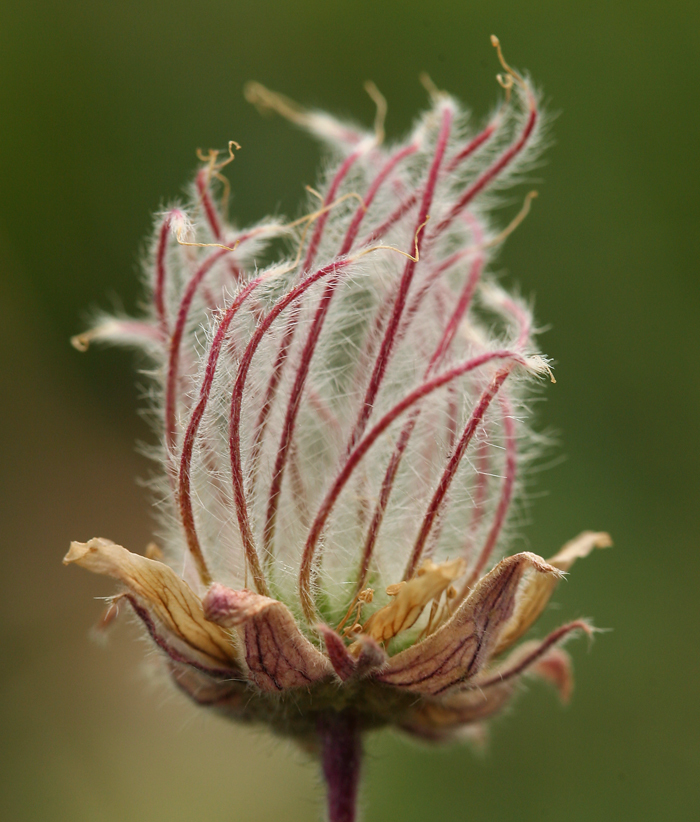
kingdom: Plantae
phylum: Tracheophyta
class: Magnoliopsida
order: Rosales
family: Rosaceae
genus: Geum
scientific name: Geum triflorum
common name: Old man's whiskers
